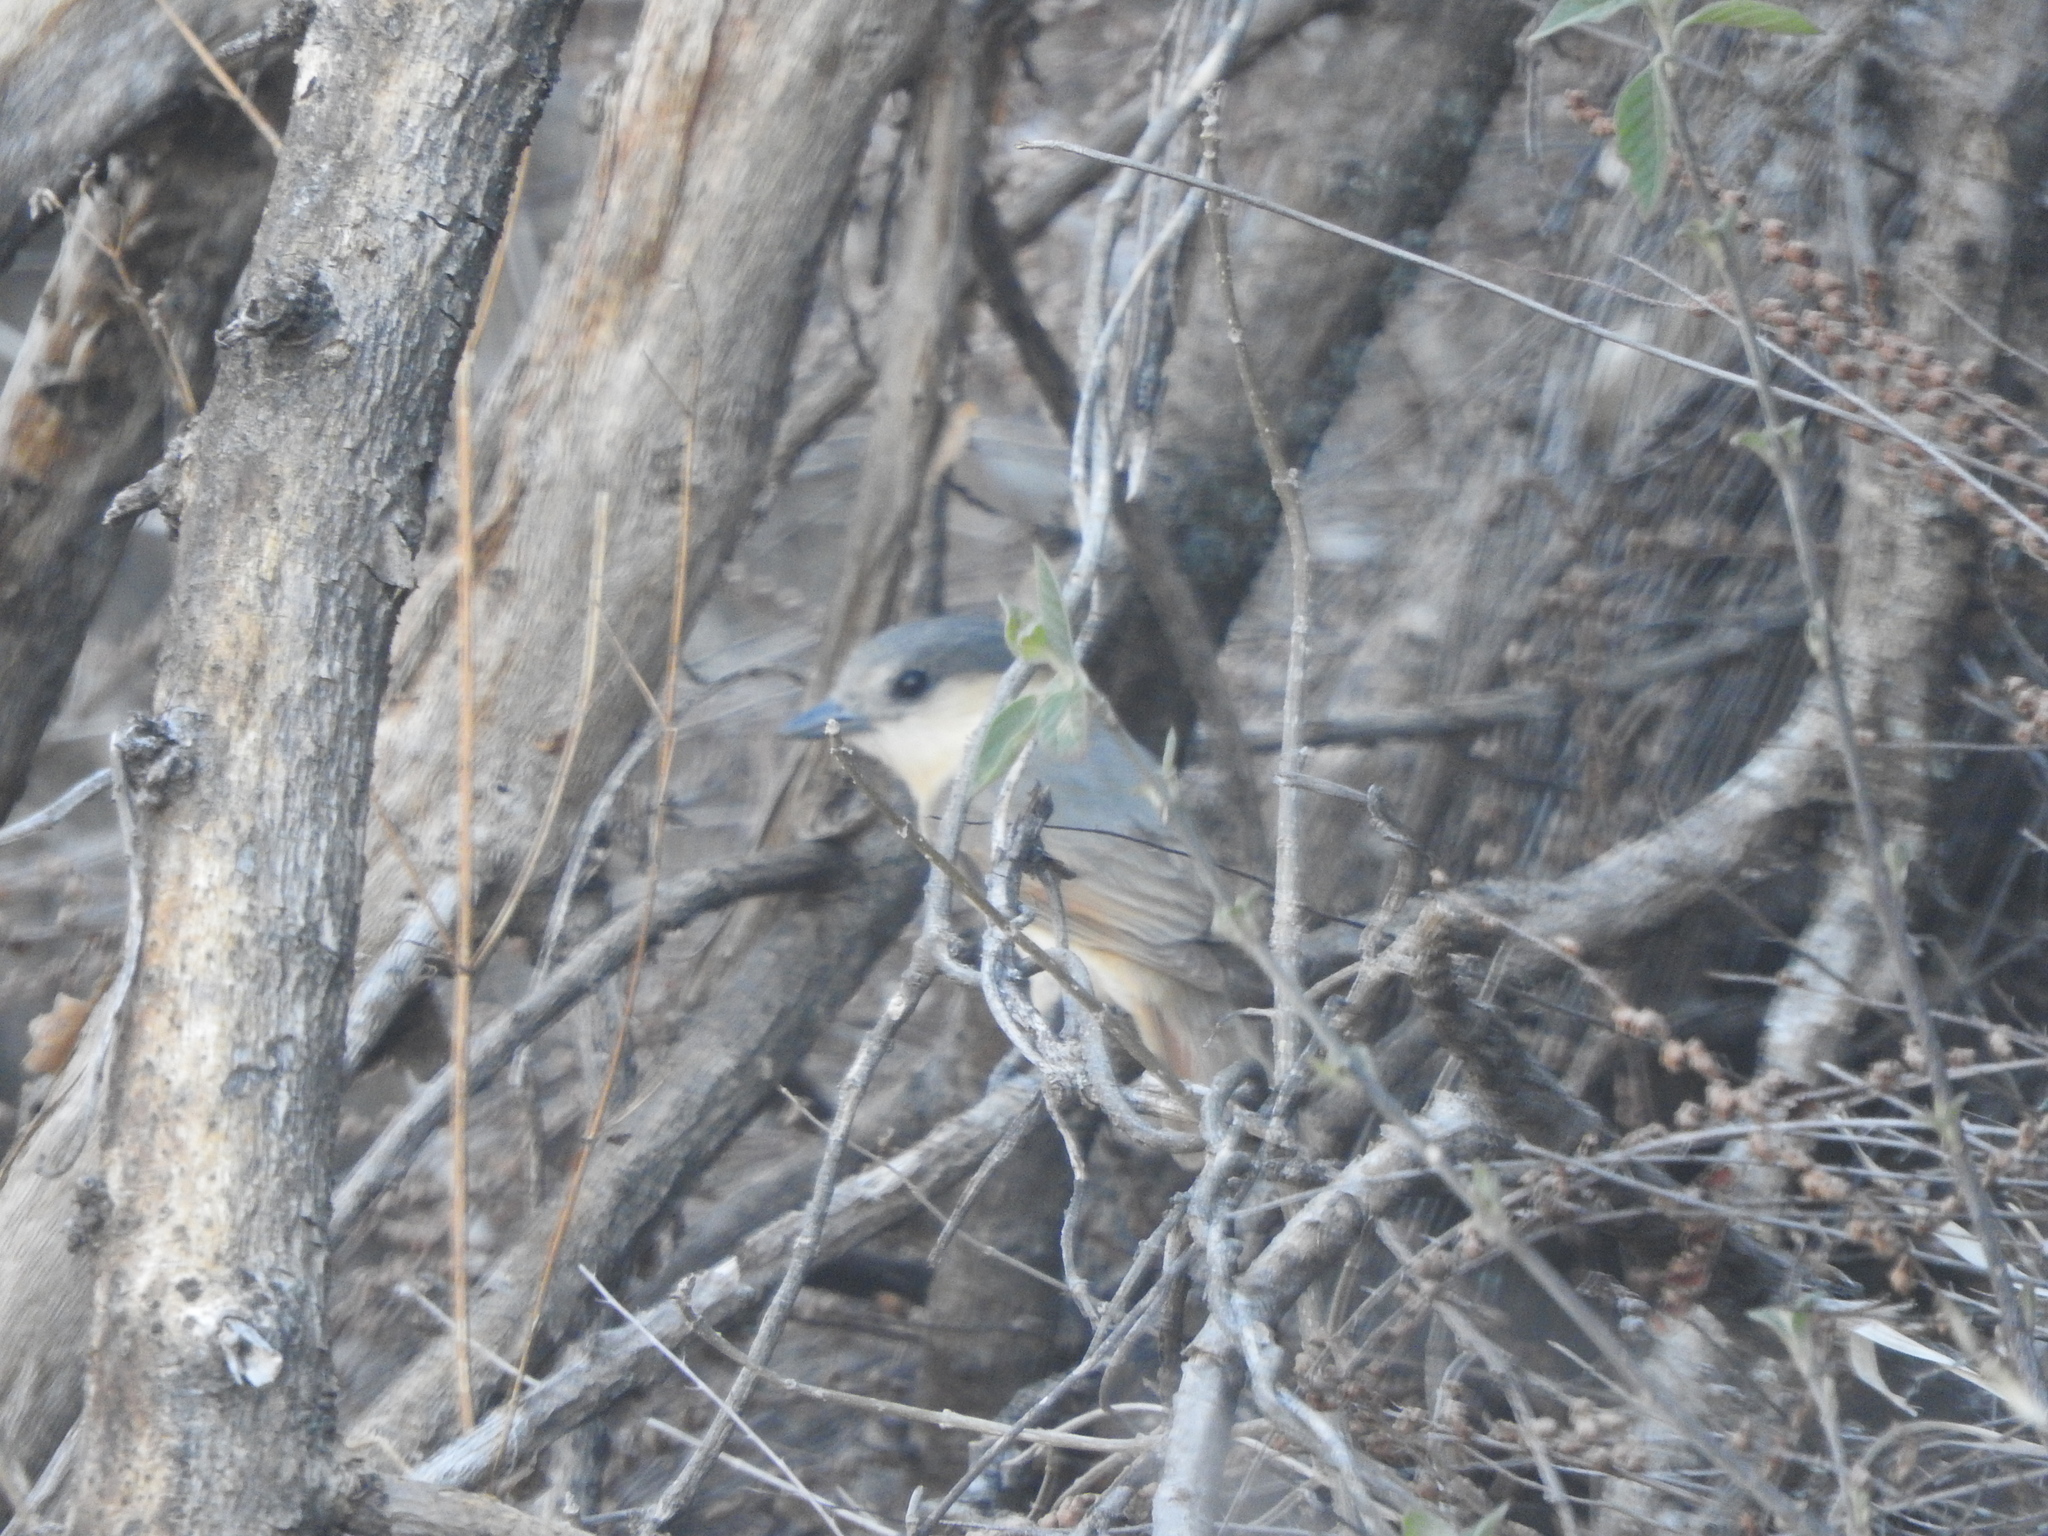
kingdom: Animalia
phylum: Chordata
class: Aves
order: Passeriformes
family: Cotingidae
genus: Pachyramphus
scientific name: Pachyramphus aglaiae
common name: Rose-throated becard
